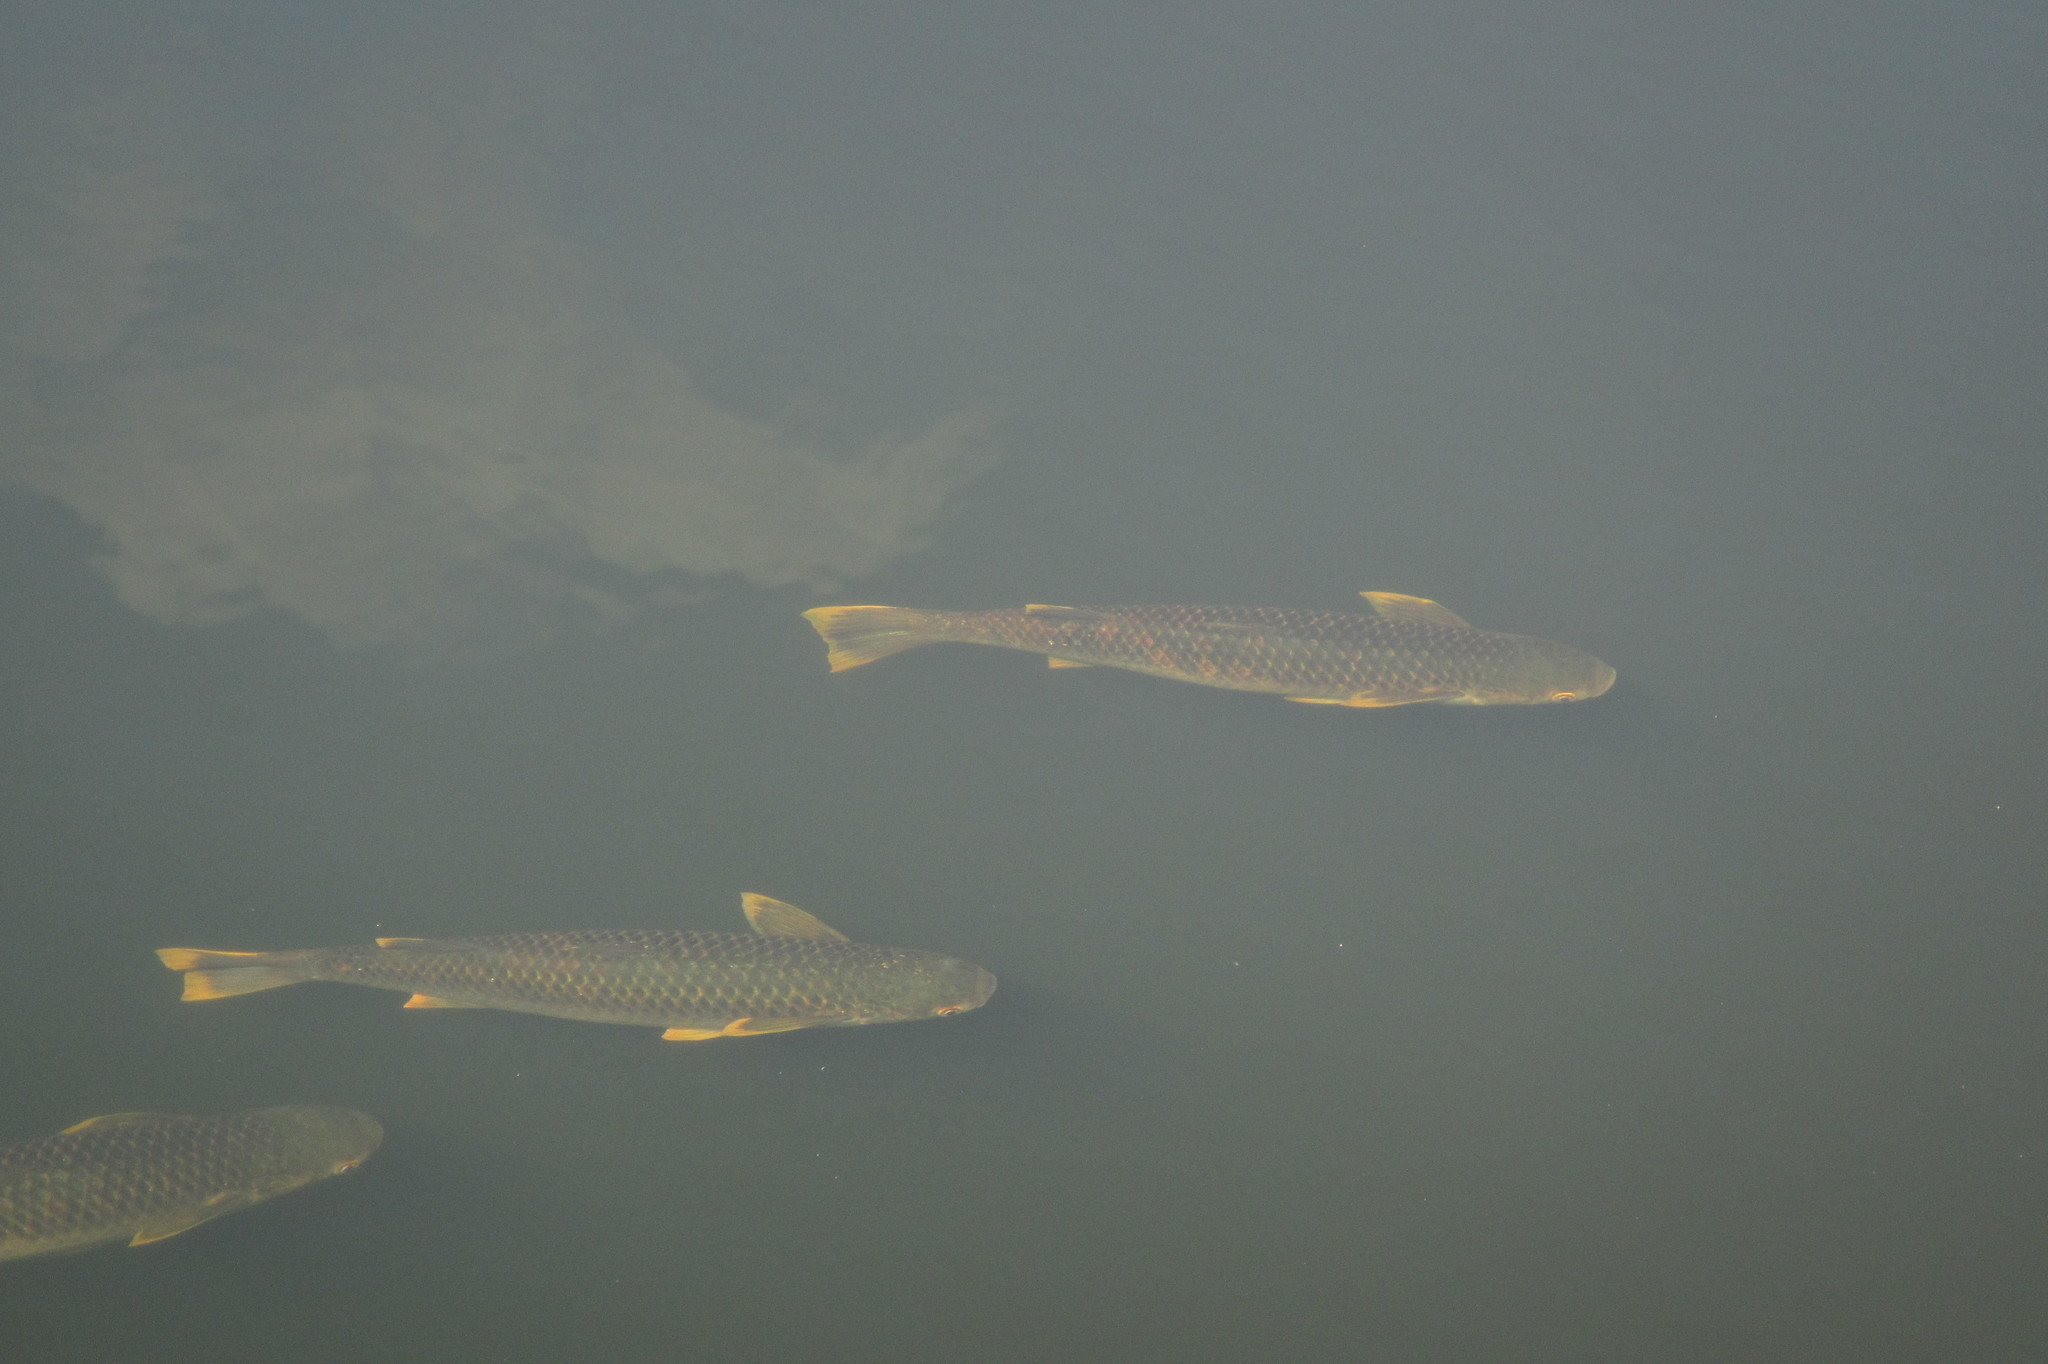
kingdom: Animalia
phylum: Chordata
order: Mugiliformes
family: Mugilidae
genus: Planiliza
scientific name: Planiliza alata
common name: Diamond mullet
